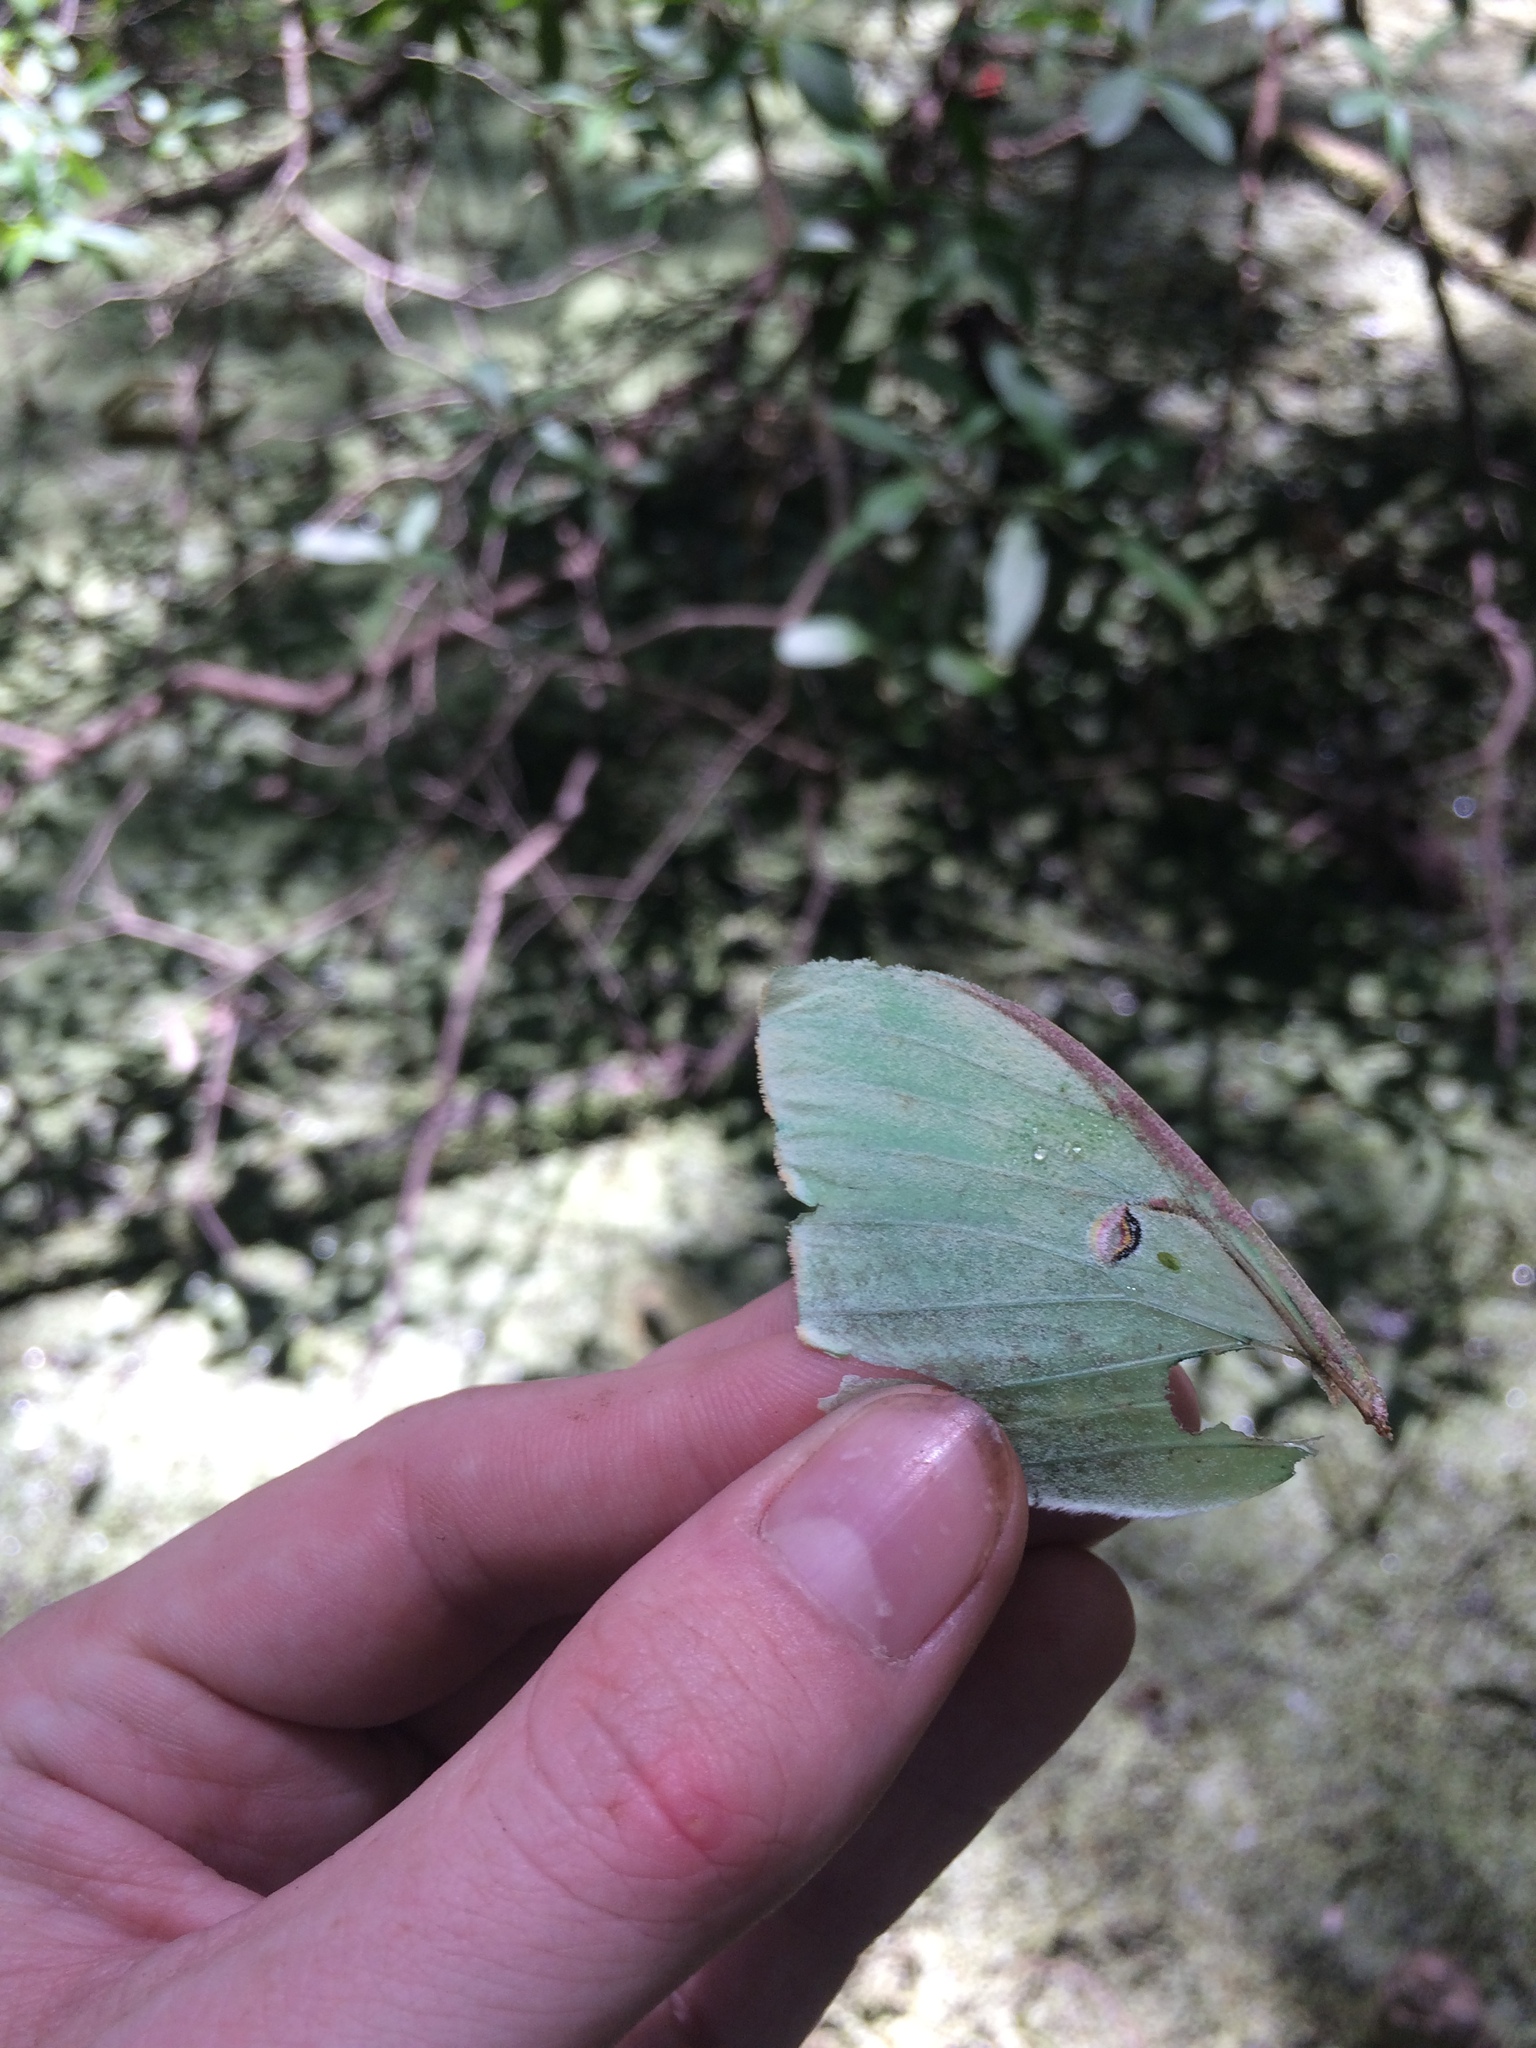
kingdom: Animalia
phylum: Arthropoda
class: Insecta
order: Lepidoptera
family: Saturniidae
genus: Actias
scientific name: Actias luna
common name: Luna moth
